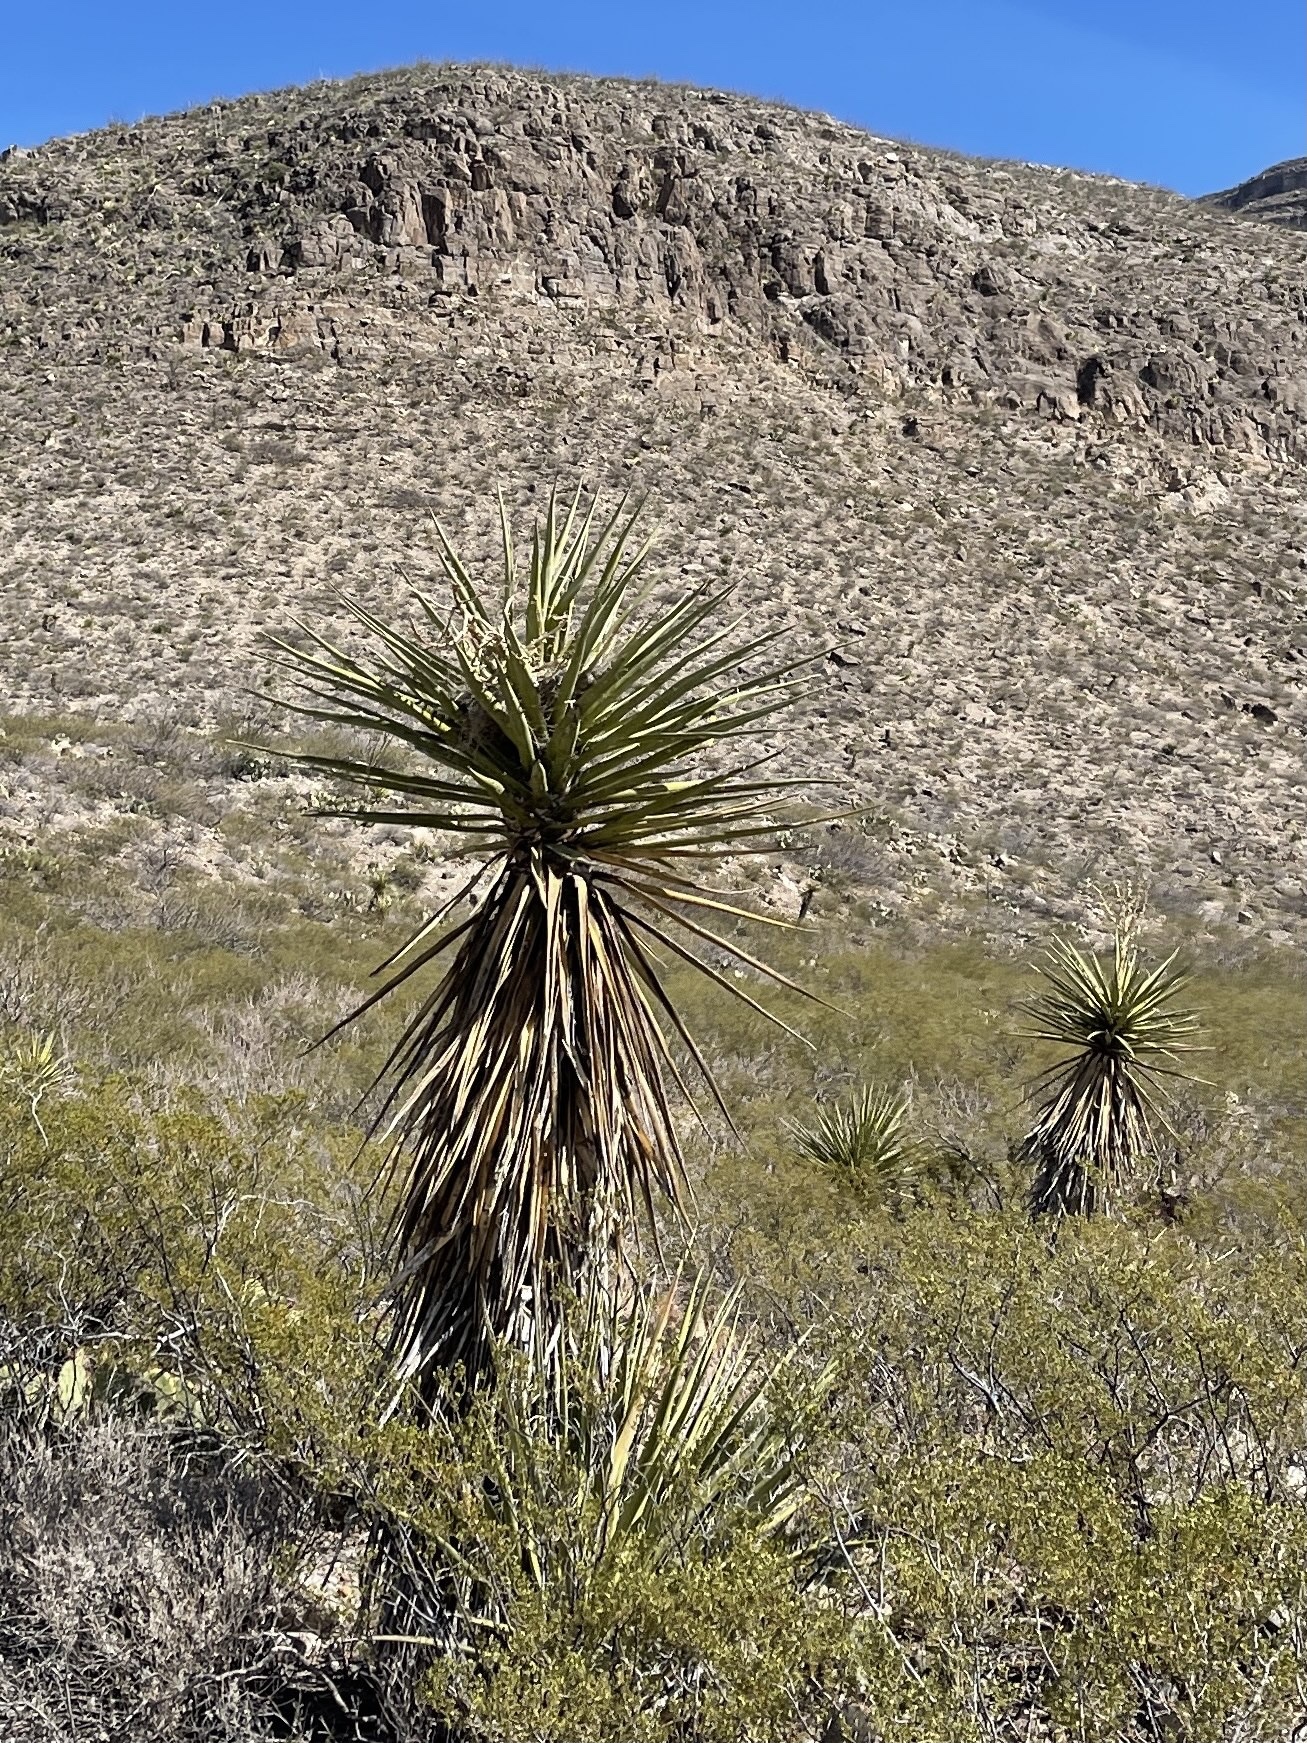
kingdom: Plantae
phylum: Tracheophyta
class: Liliopsida
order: Asparagales
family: Asparagaceae
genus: Yucca
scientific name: Yucca treculiana
